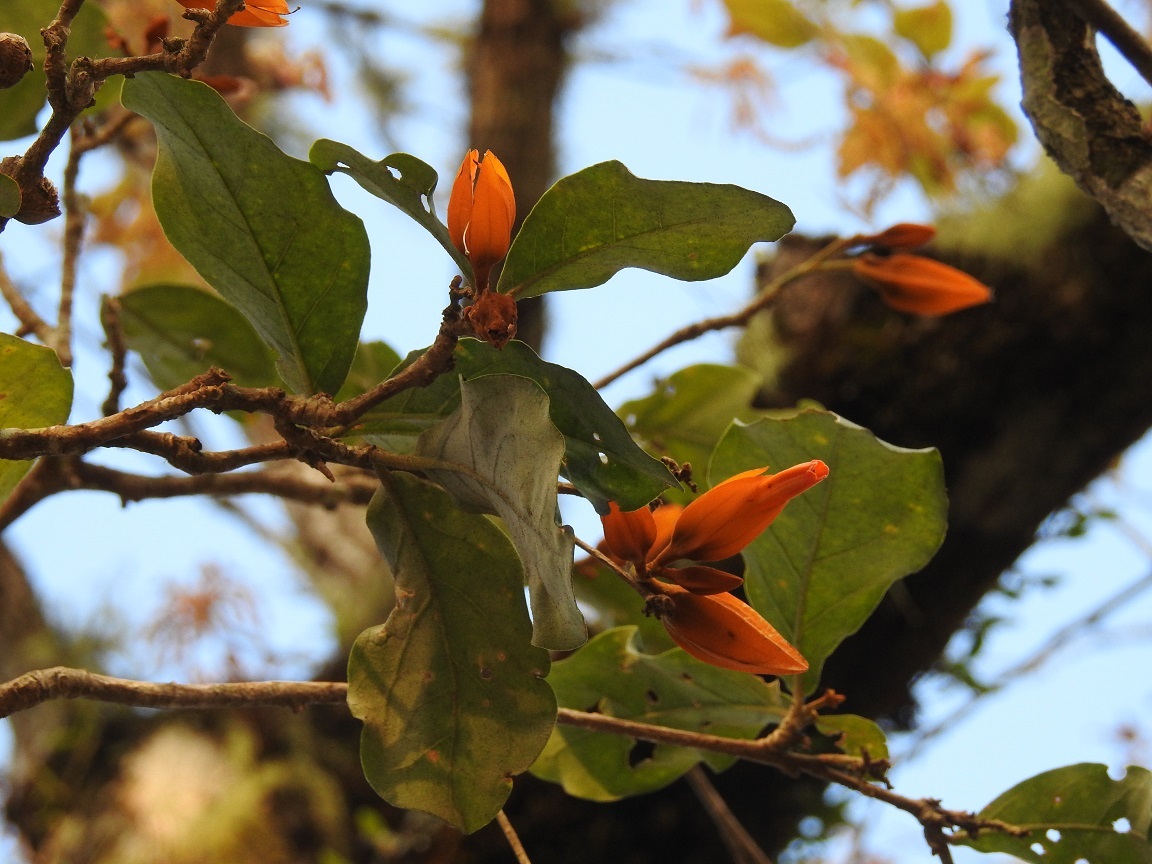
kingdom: Plantae
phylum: Tracheophyta
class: Magnoliopsida
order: Solanales
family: Solanaceae
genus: Juanulloa
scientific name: Juanulloa mexicana
